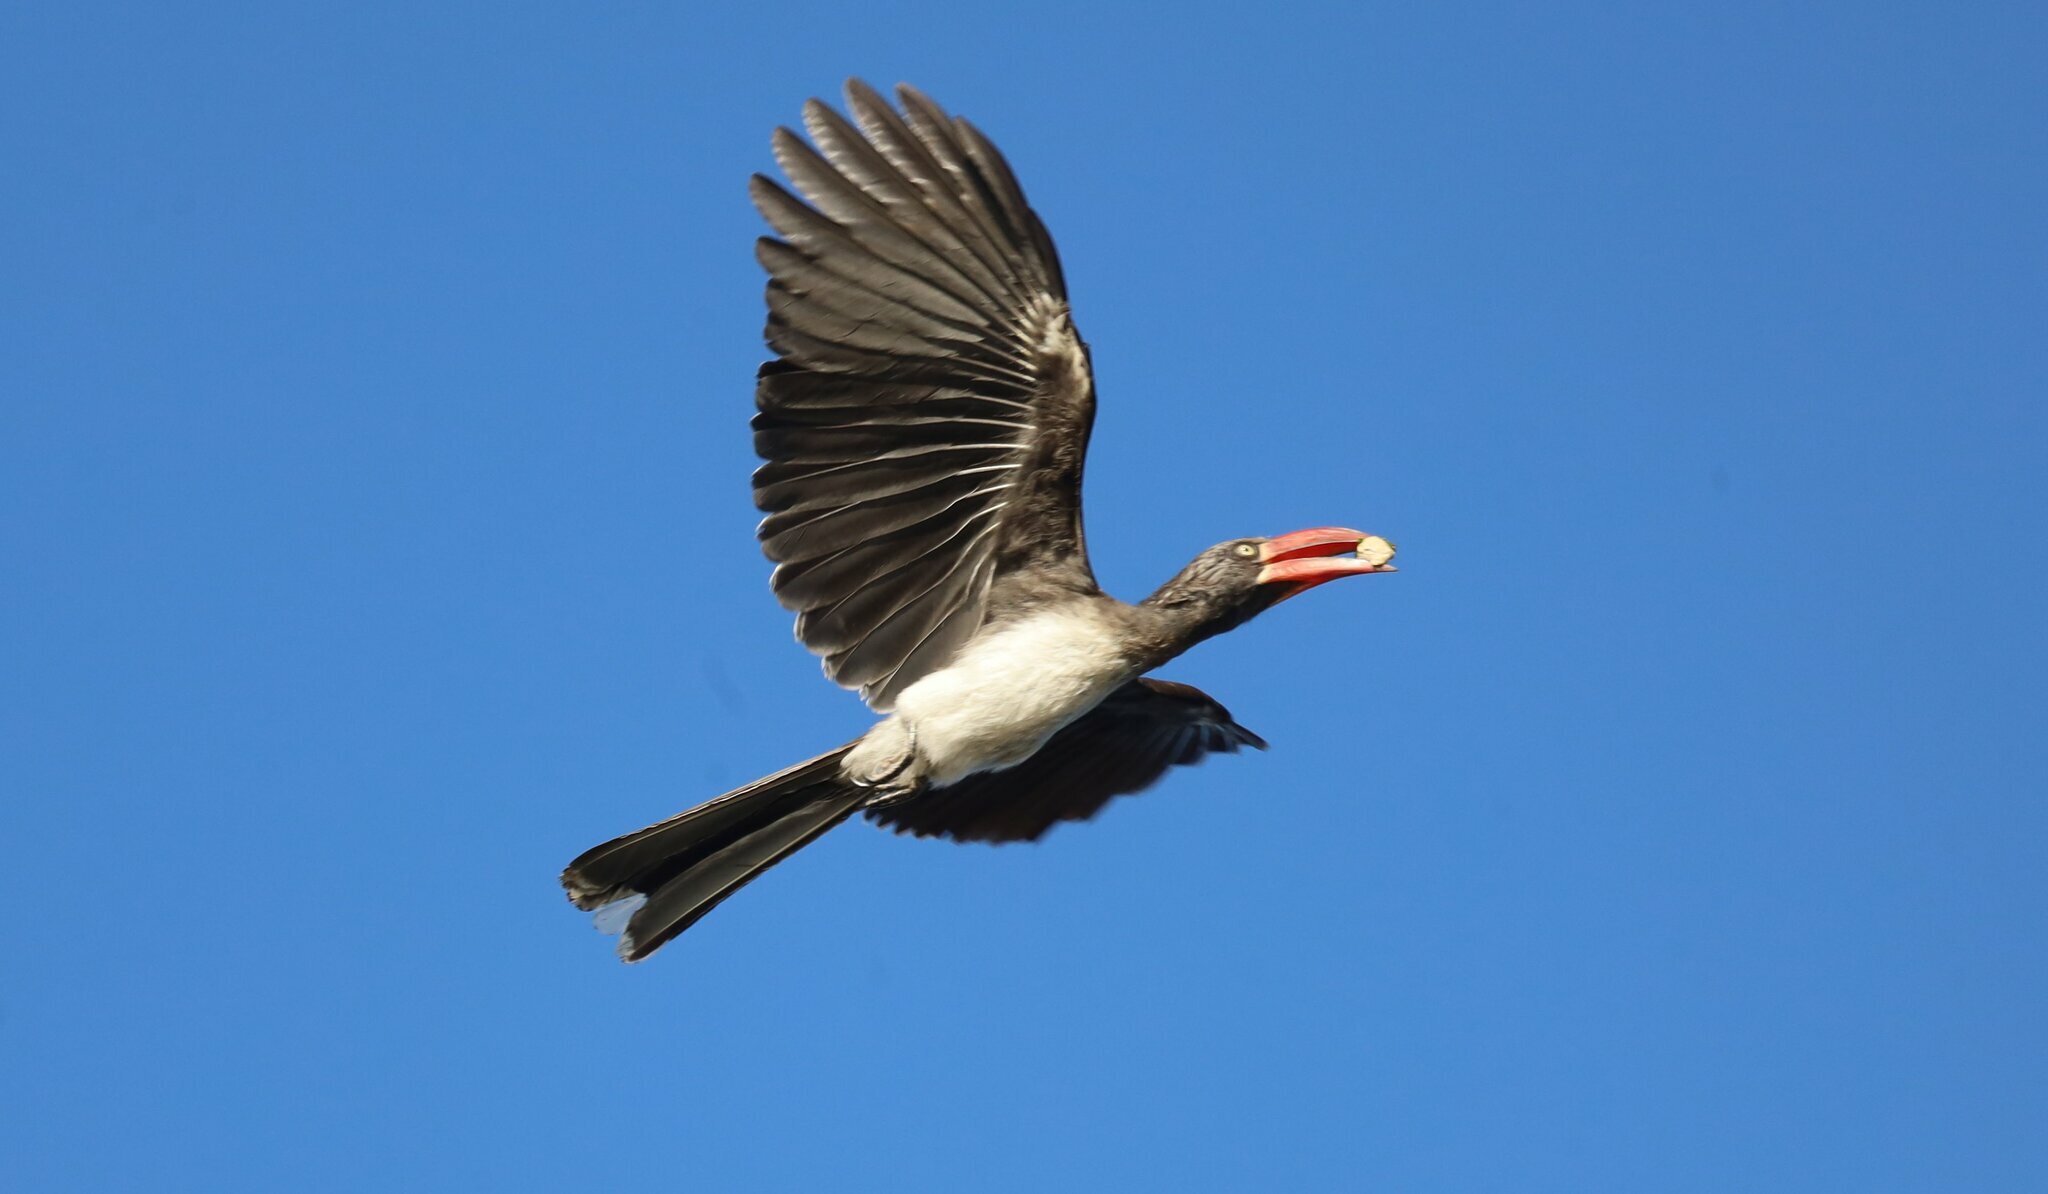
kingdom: Animalia
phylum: Chordata
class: Aves
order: Bucerotiformes
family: Bucerotidae
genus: Lophoceros
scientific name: Lophoceros alboterminatus
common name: Crowned hornbill
